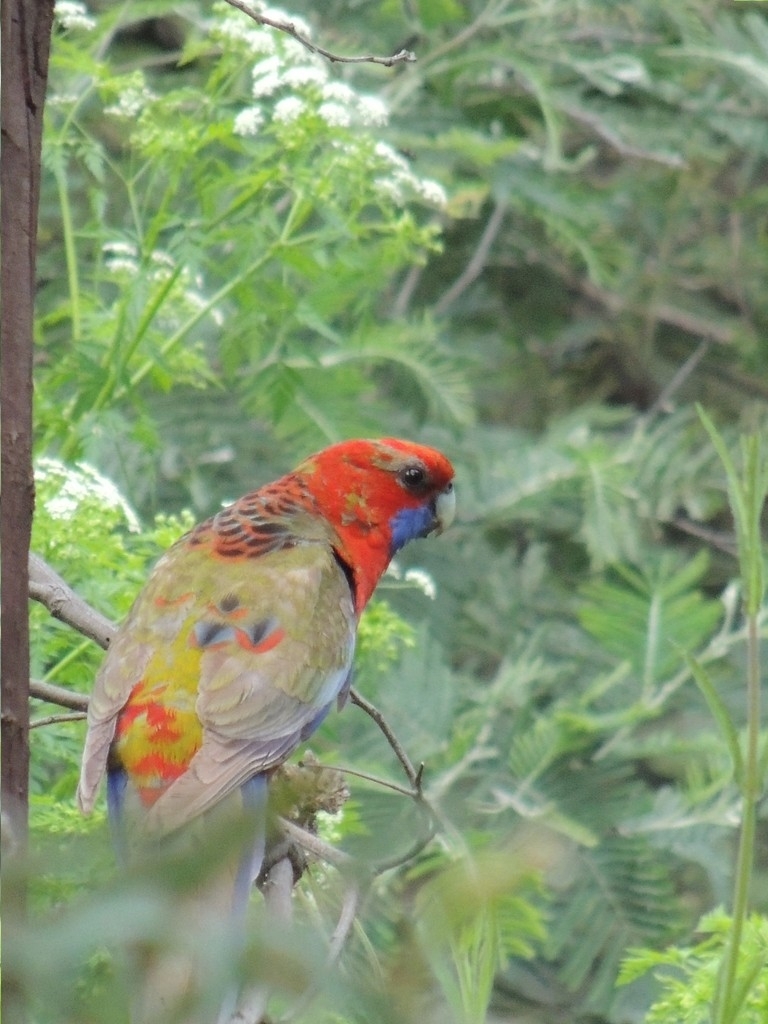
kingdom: Animalia
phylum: Chordata
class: Aves
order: Psittaciformes
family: Psittacidae
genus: Platycercus
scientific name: Platycercus elegans
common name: Crimson rosella
